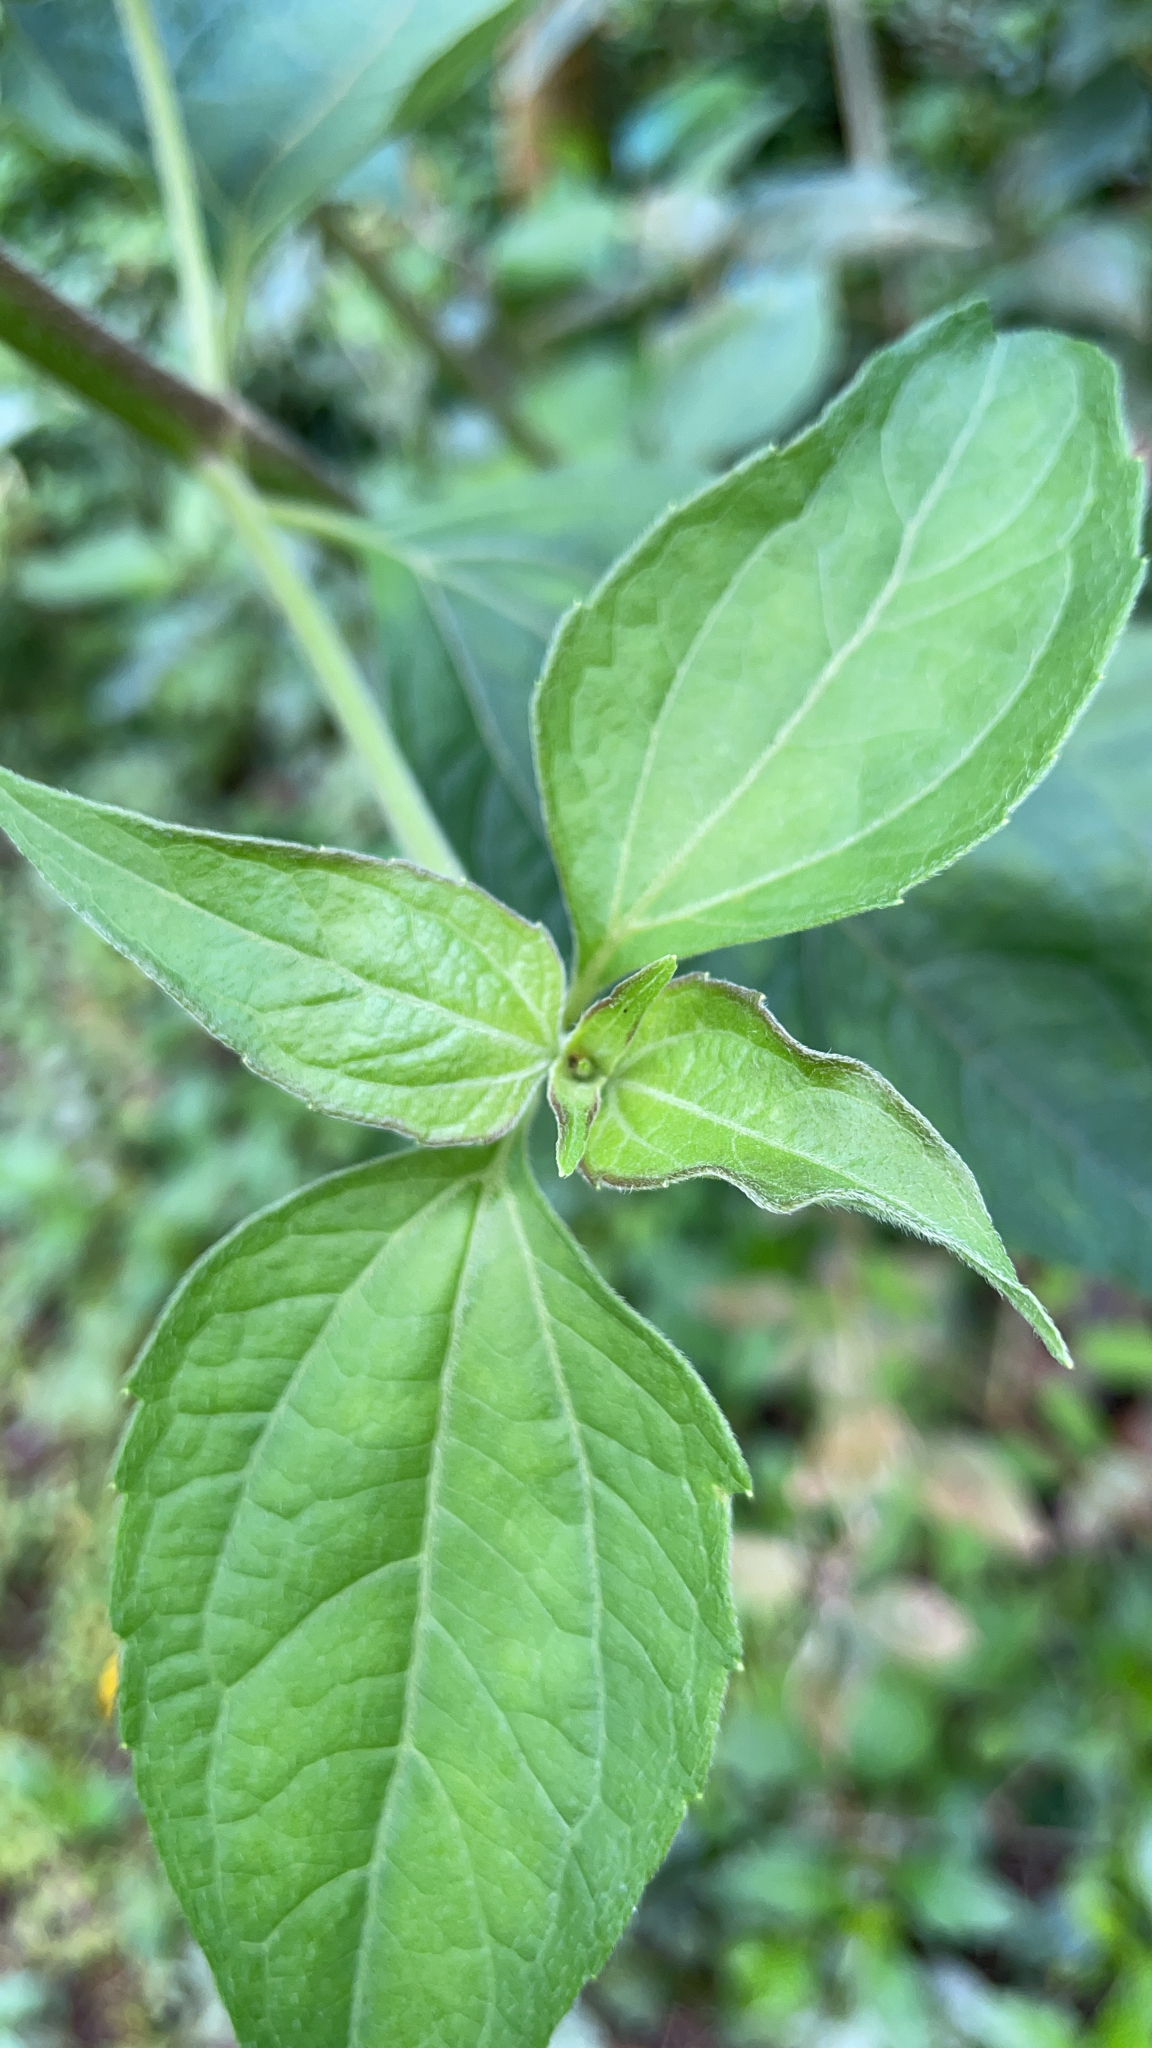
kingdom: Plantae
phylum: Tracheophyta
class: Magnoliopsida
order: Asterales
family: Asteraceae
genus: Chromolaena
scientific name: Chromolaena odorata
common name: Siamweed
